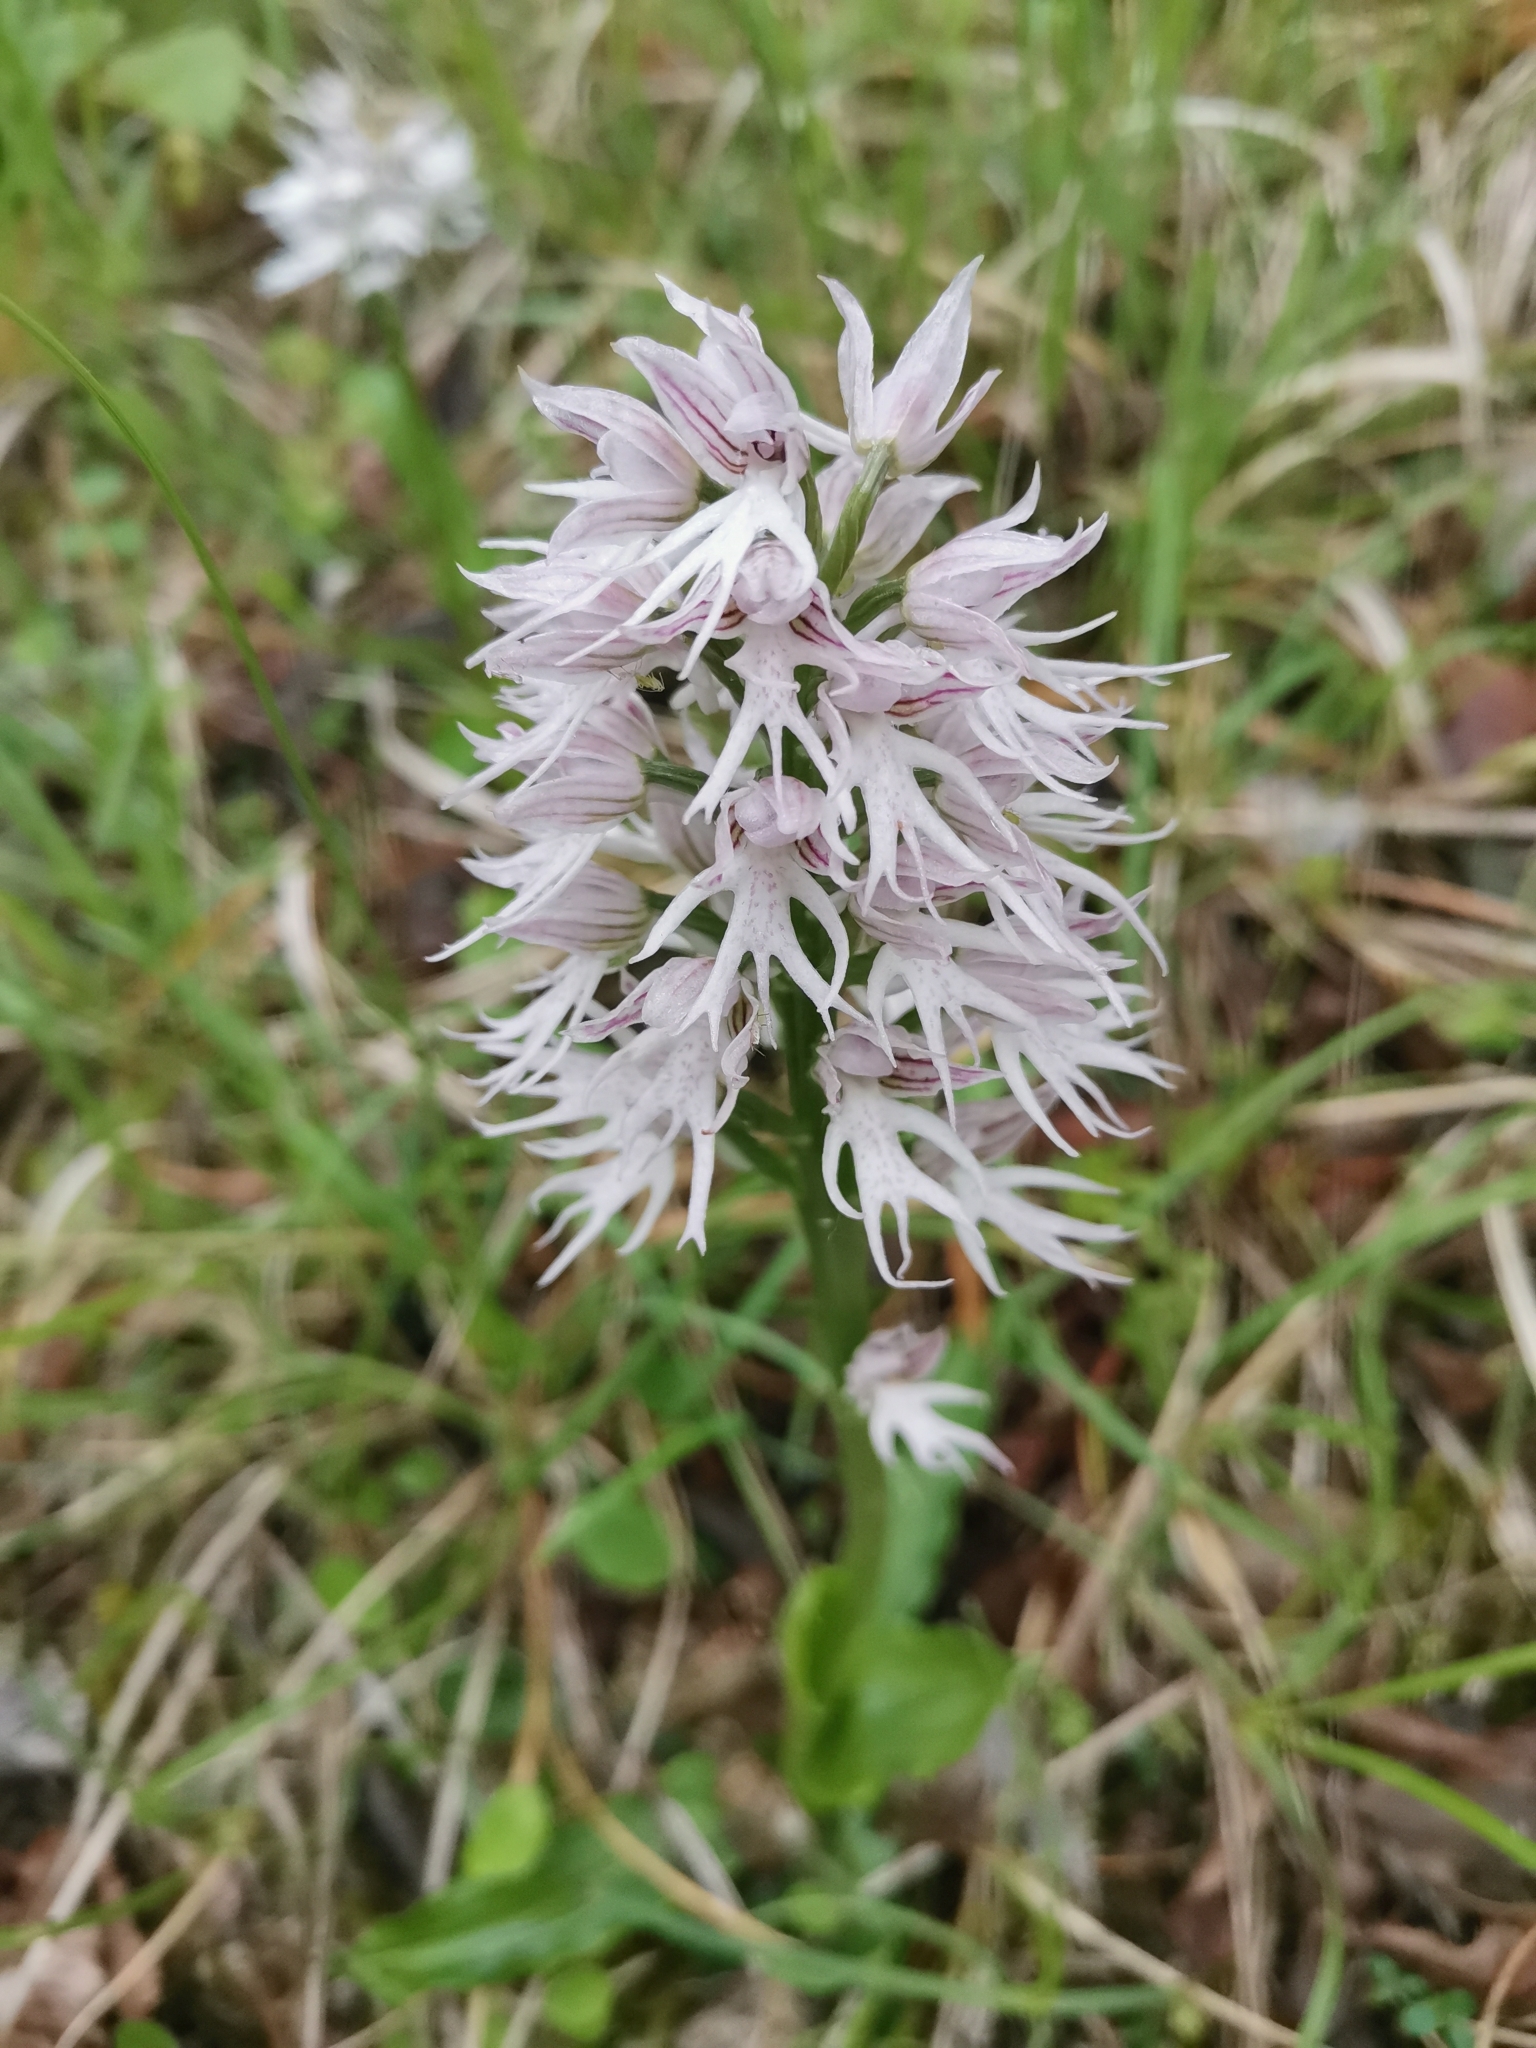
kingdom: Plantae
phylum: Tracheophyta
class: Liliopsida
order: Asparagales
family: Orchidaceae
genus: Orchis
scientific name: Orchis italica
